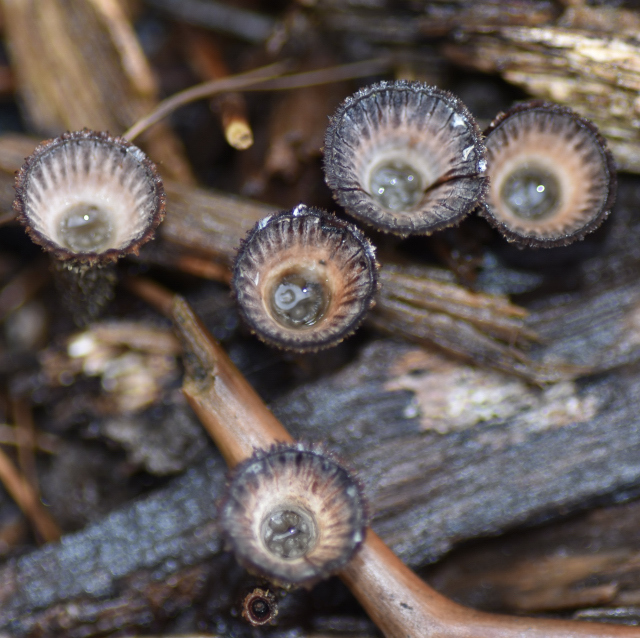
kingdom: Fungi
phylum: Basidiomycota
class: Agaricomycetes
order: Agaricales
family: Agaricaceae
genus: Cyathus
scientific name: Cyathus striatus
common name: Fluted bird's nest
